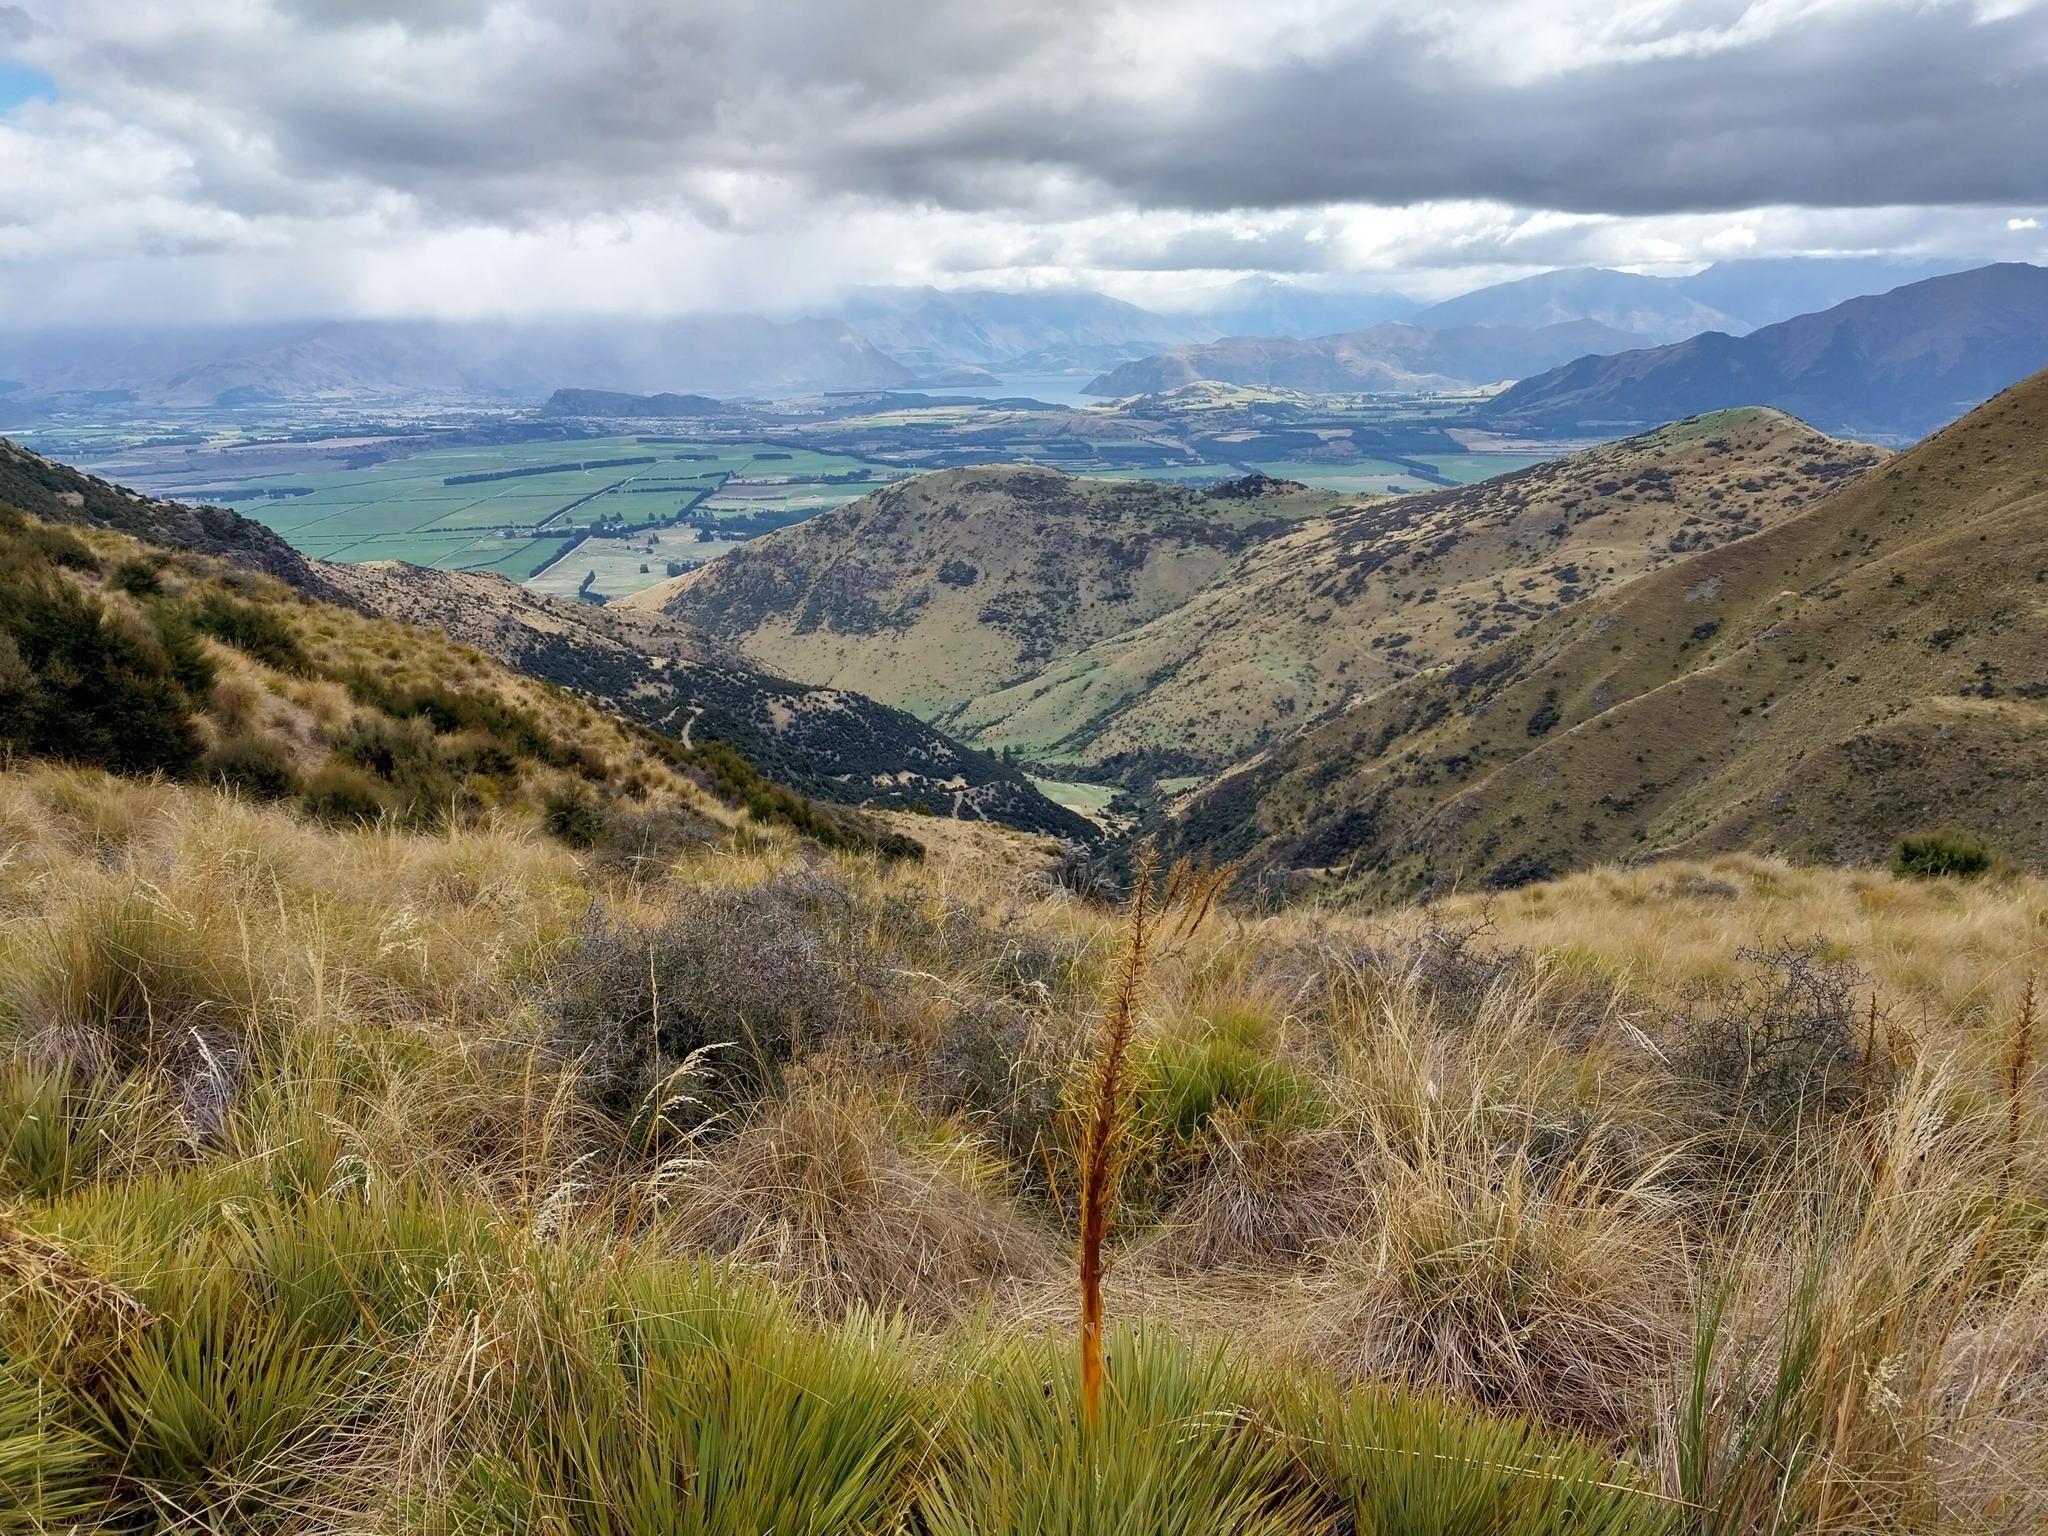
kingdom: Plantae
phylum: Tracheophyta
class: Magnoliopsida
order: Apiales
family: Apiaceae
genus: Aciphylla
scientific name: Aciphylla aurea
